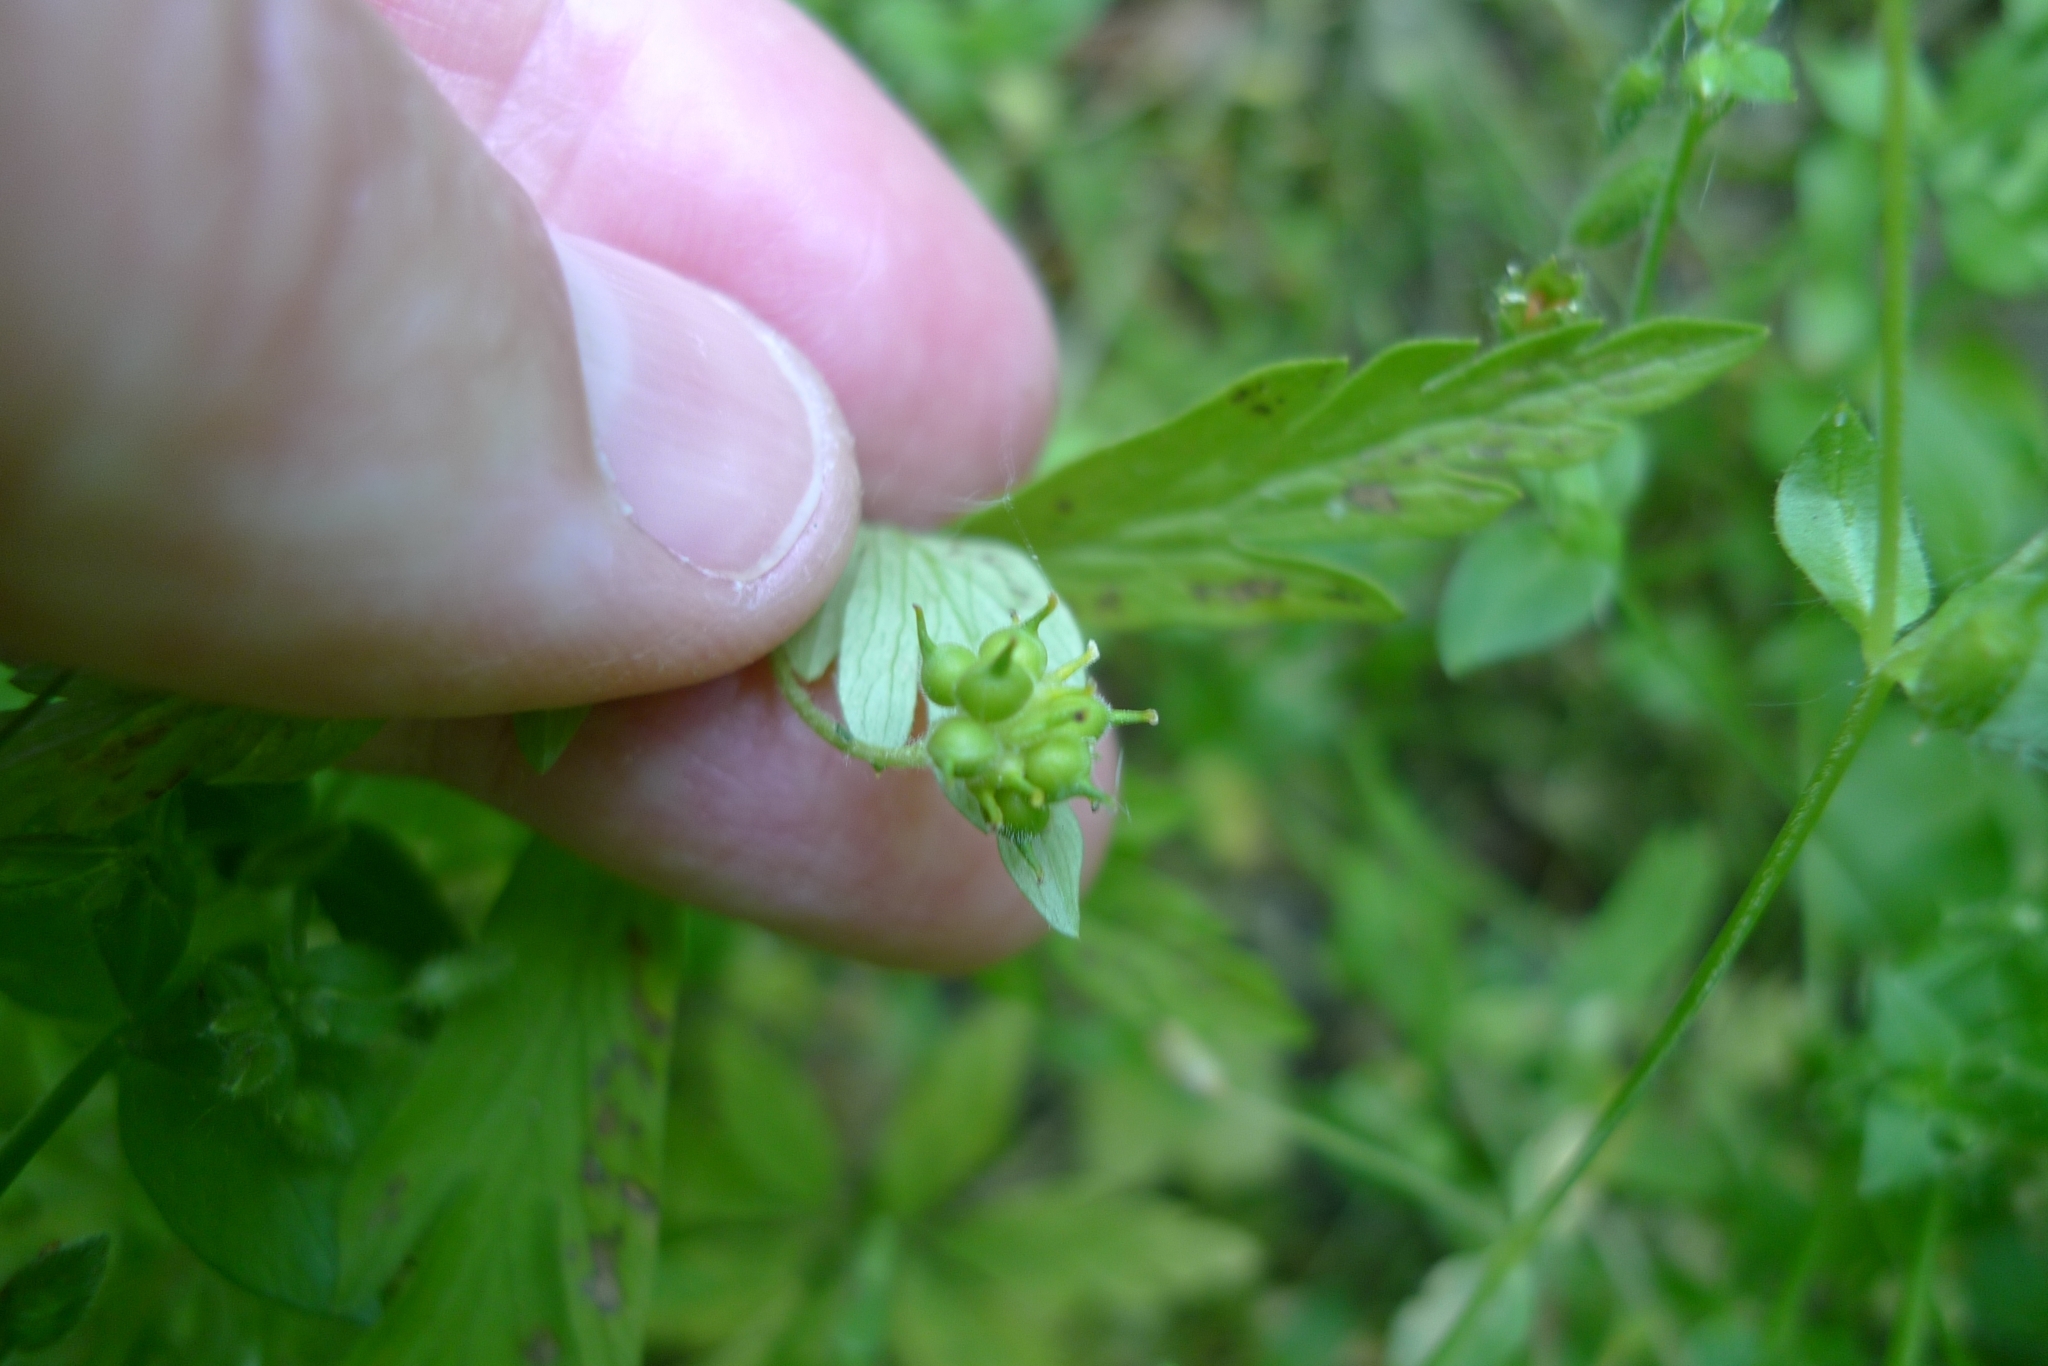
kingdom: Plantae
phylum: Tracheophyta
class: Magnoliopsida
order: Ranunculales
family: Ranunculaceae
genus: Anemone
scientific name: Anemone ranunculoides
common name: Yellow anemone
